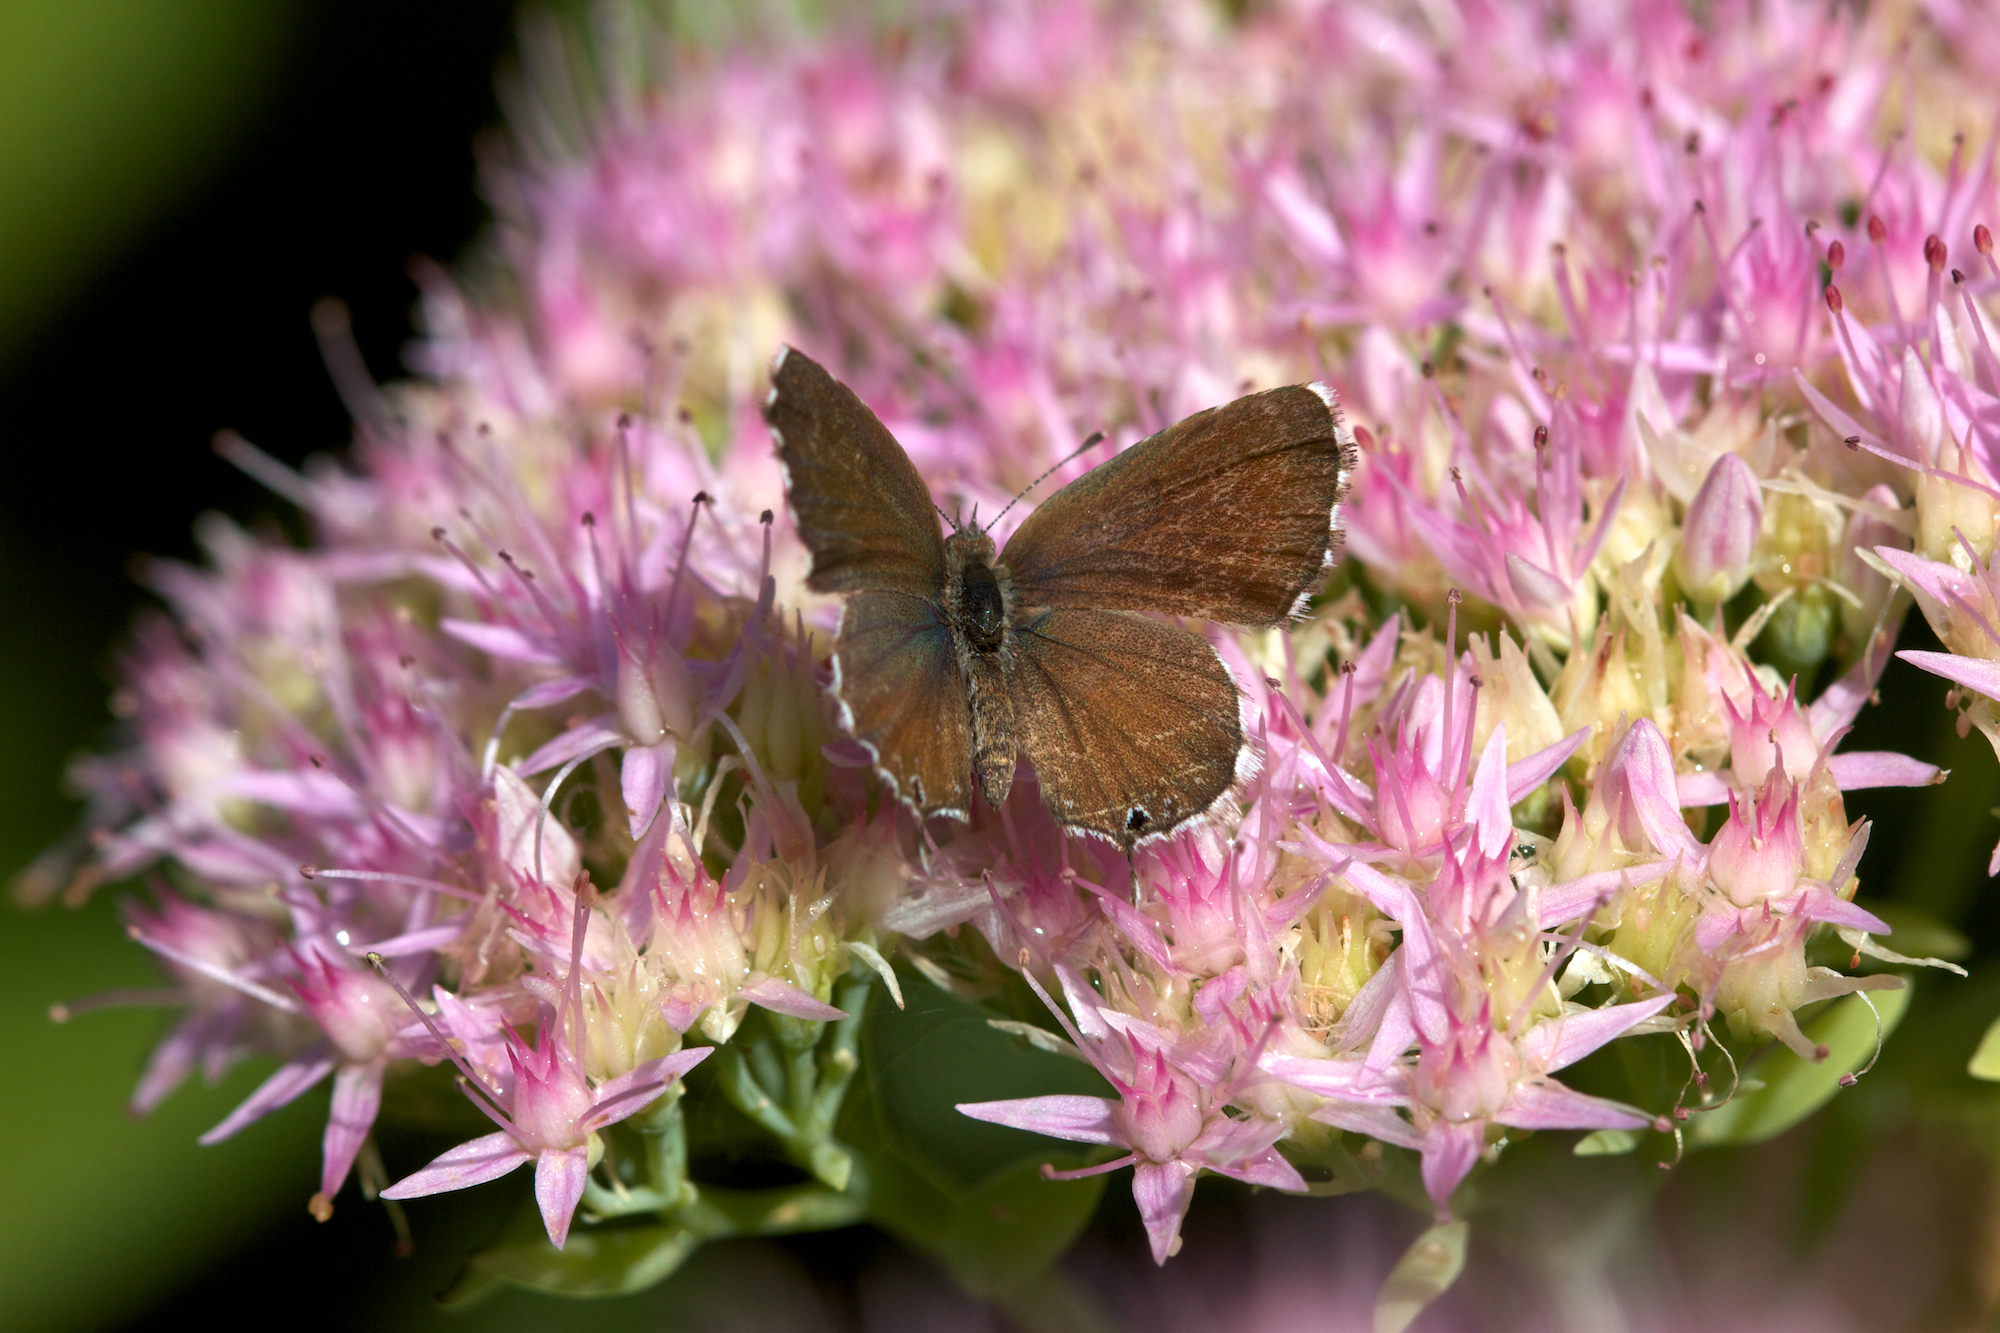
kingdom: Animalia
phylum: Arthropoda
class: Insecta
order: Lepidoptera
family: Lycaenidae
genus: Cacyreus
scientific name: Cacyreus marshalli
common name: Geranium bronze
